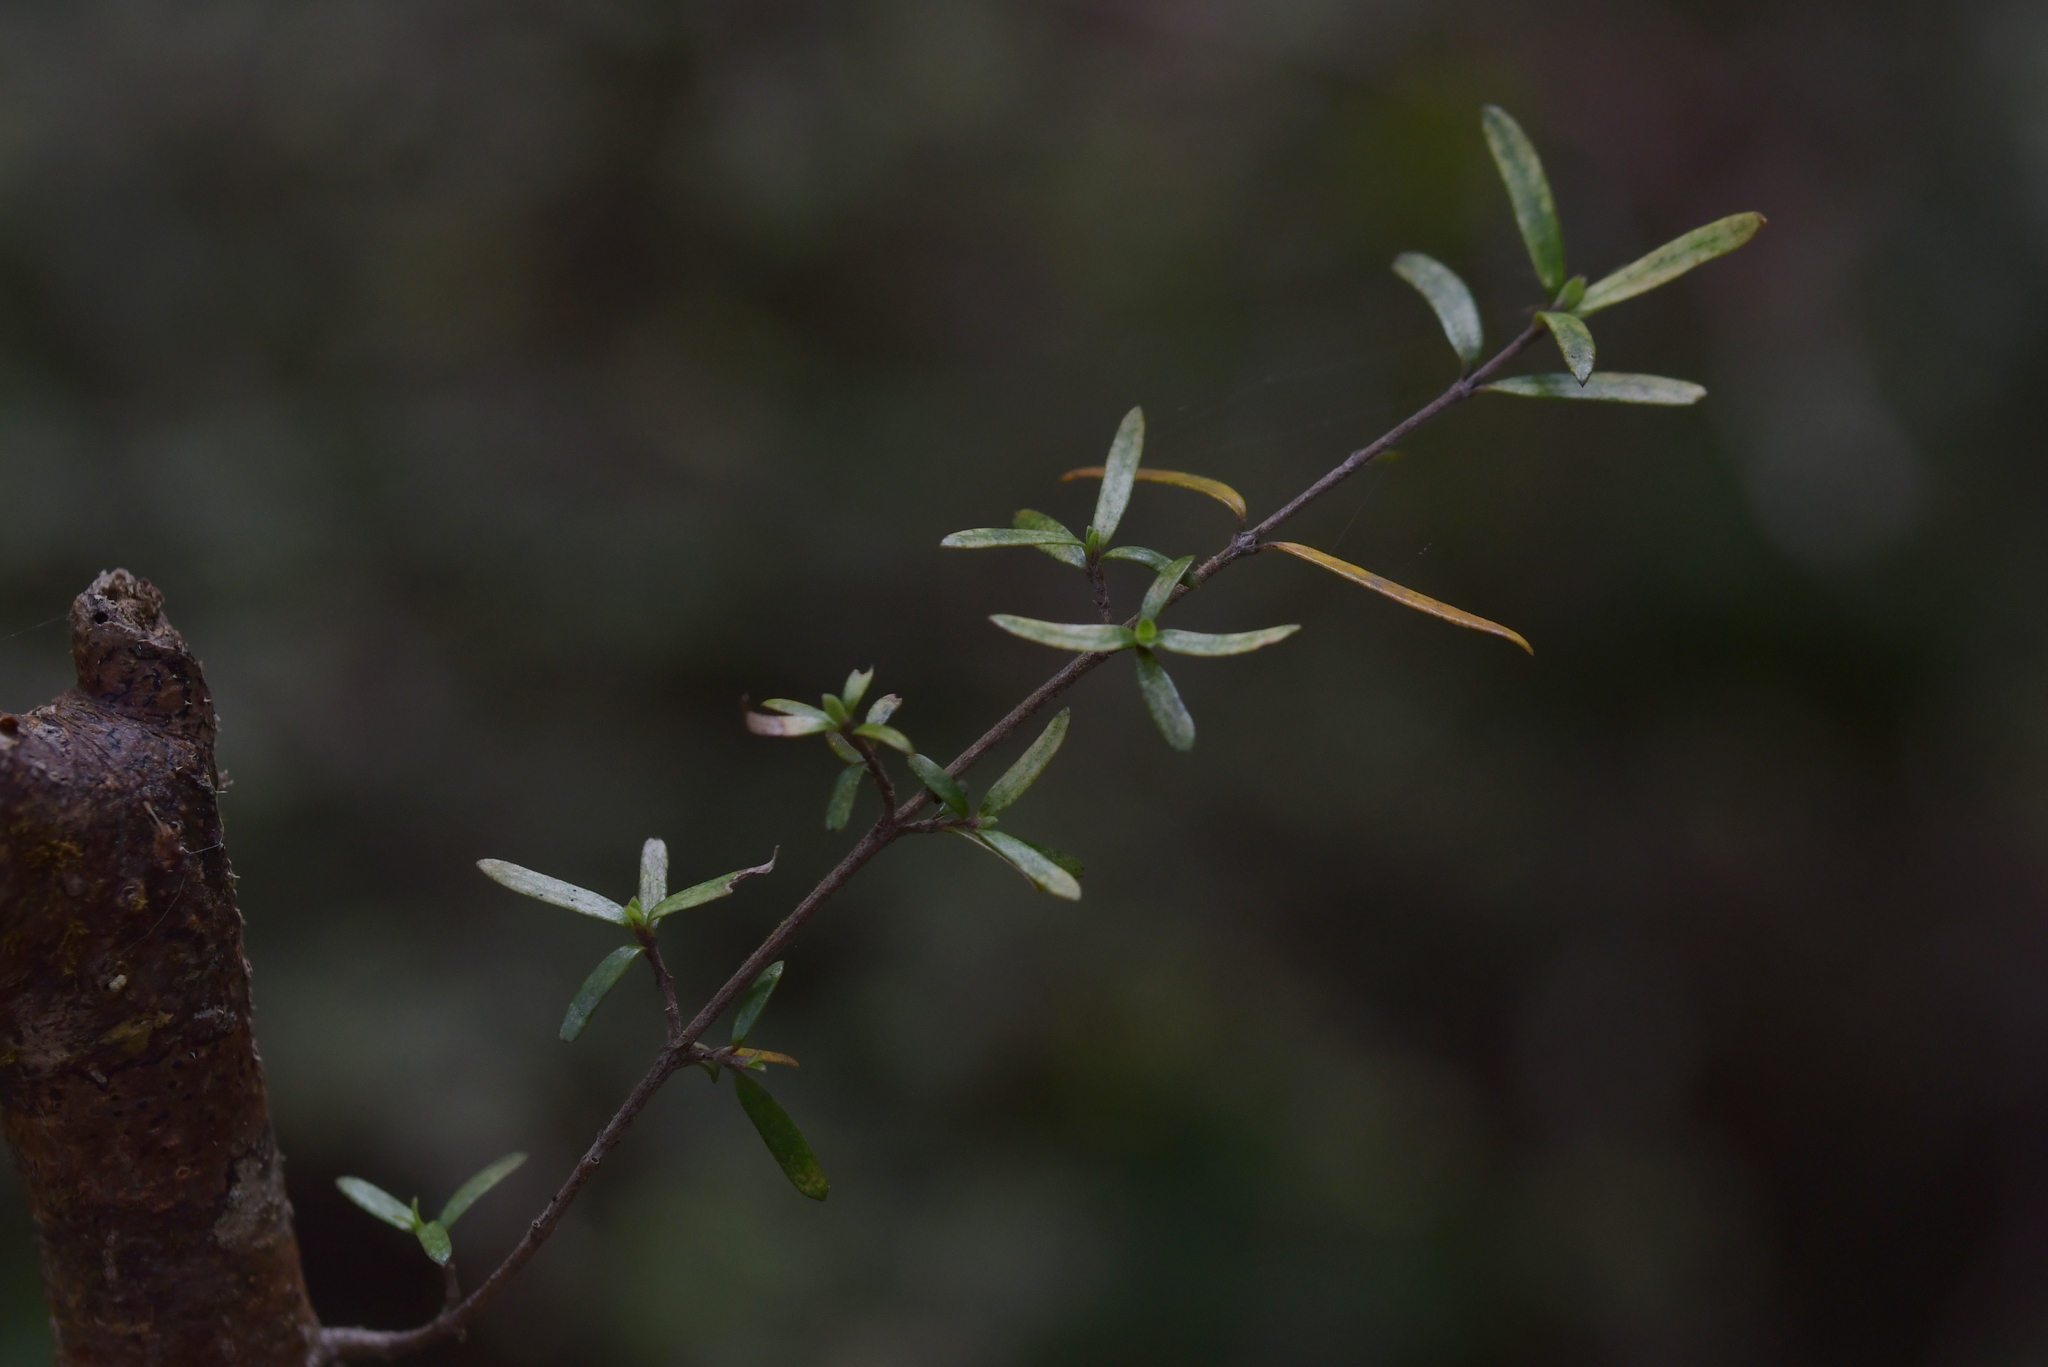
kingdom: Plantae
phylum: Tracheophyta
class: Magnoliopsida
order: Gentianales
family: Rubiaceae
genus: Coprosma
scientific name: Coprosma linariifolia
